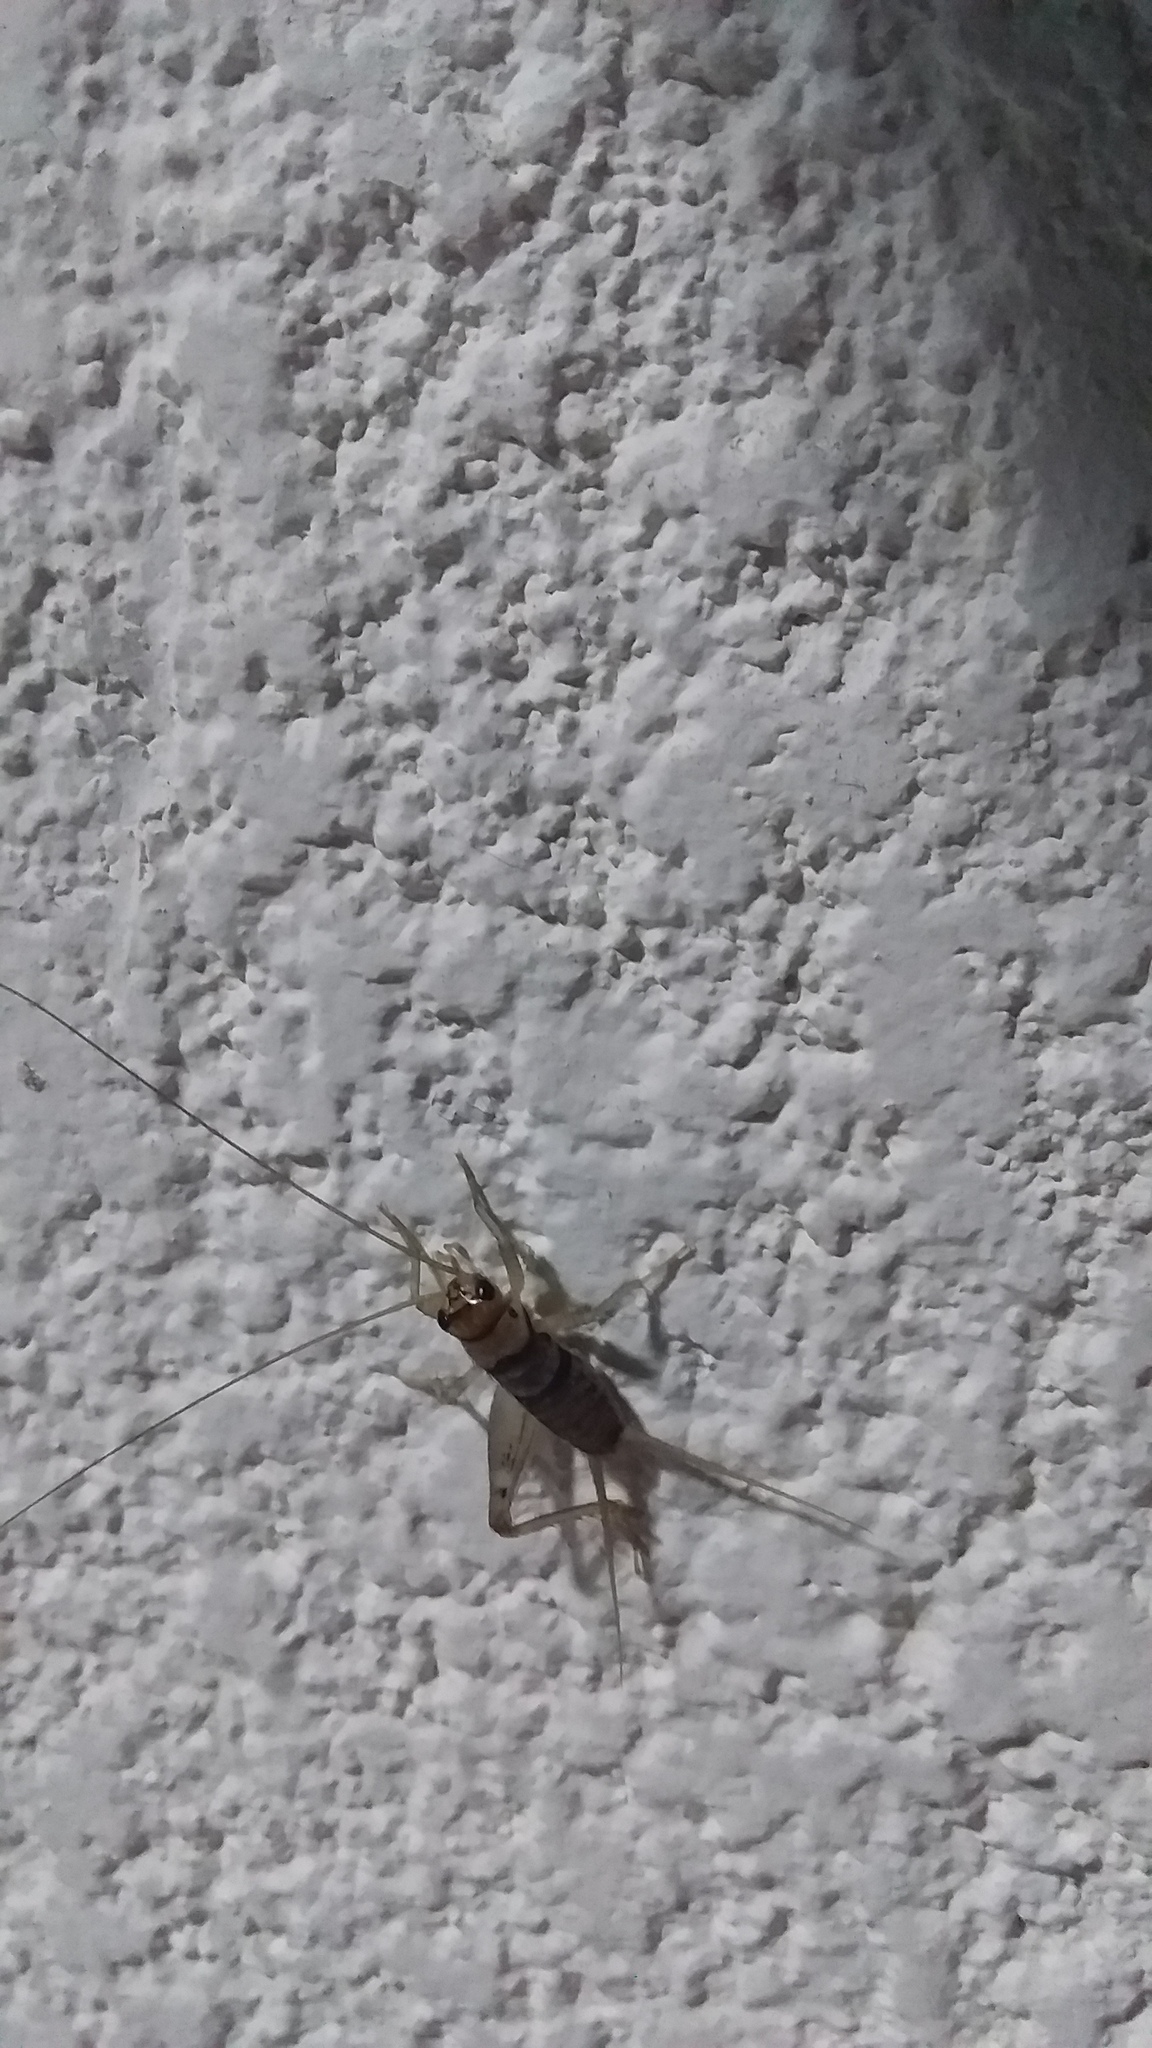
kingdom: Animalia
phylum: Arthropoda
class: Insecta
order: Orthoptera
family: Gryllidae
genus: Gryllodes
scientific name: Gryllodes sigillatus
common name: Tropical house cricket
